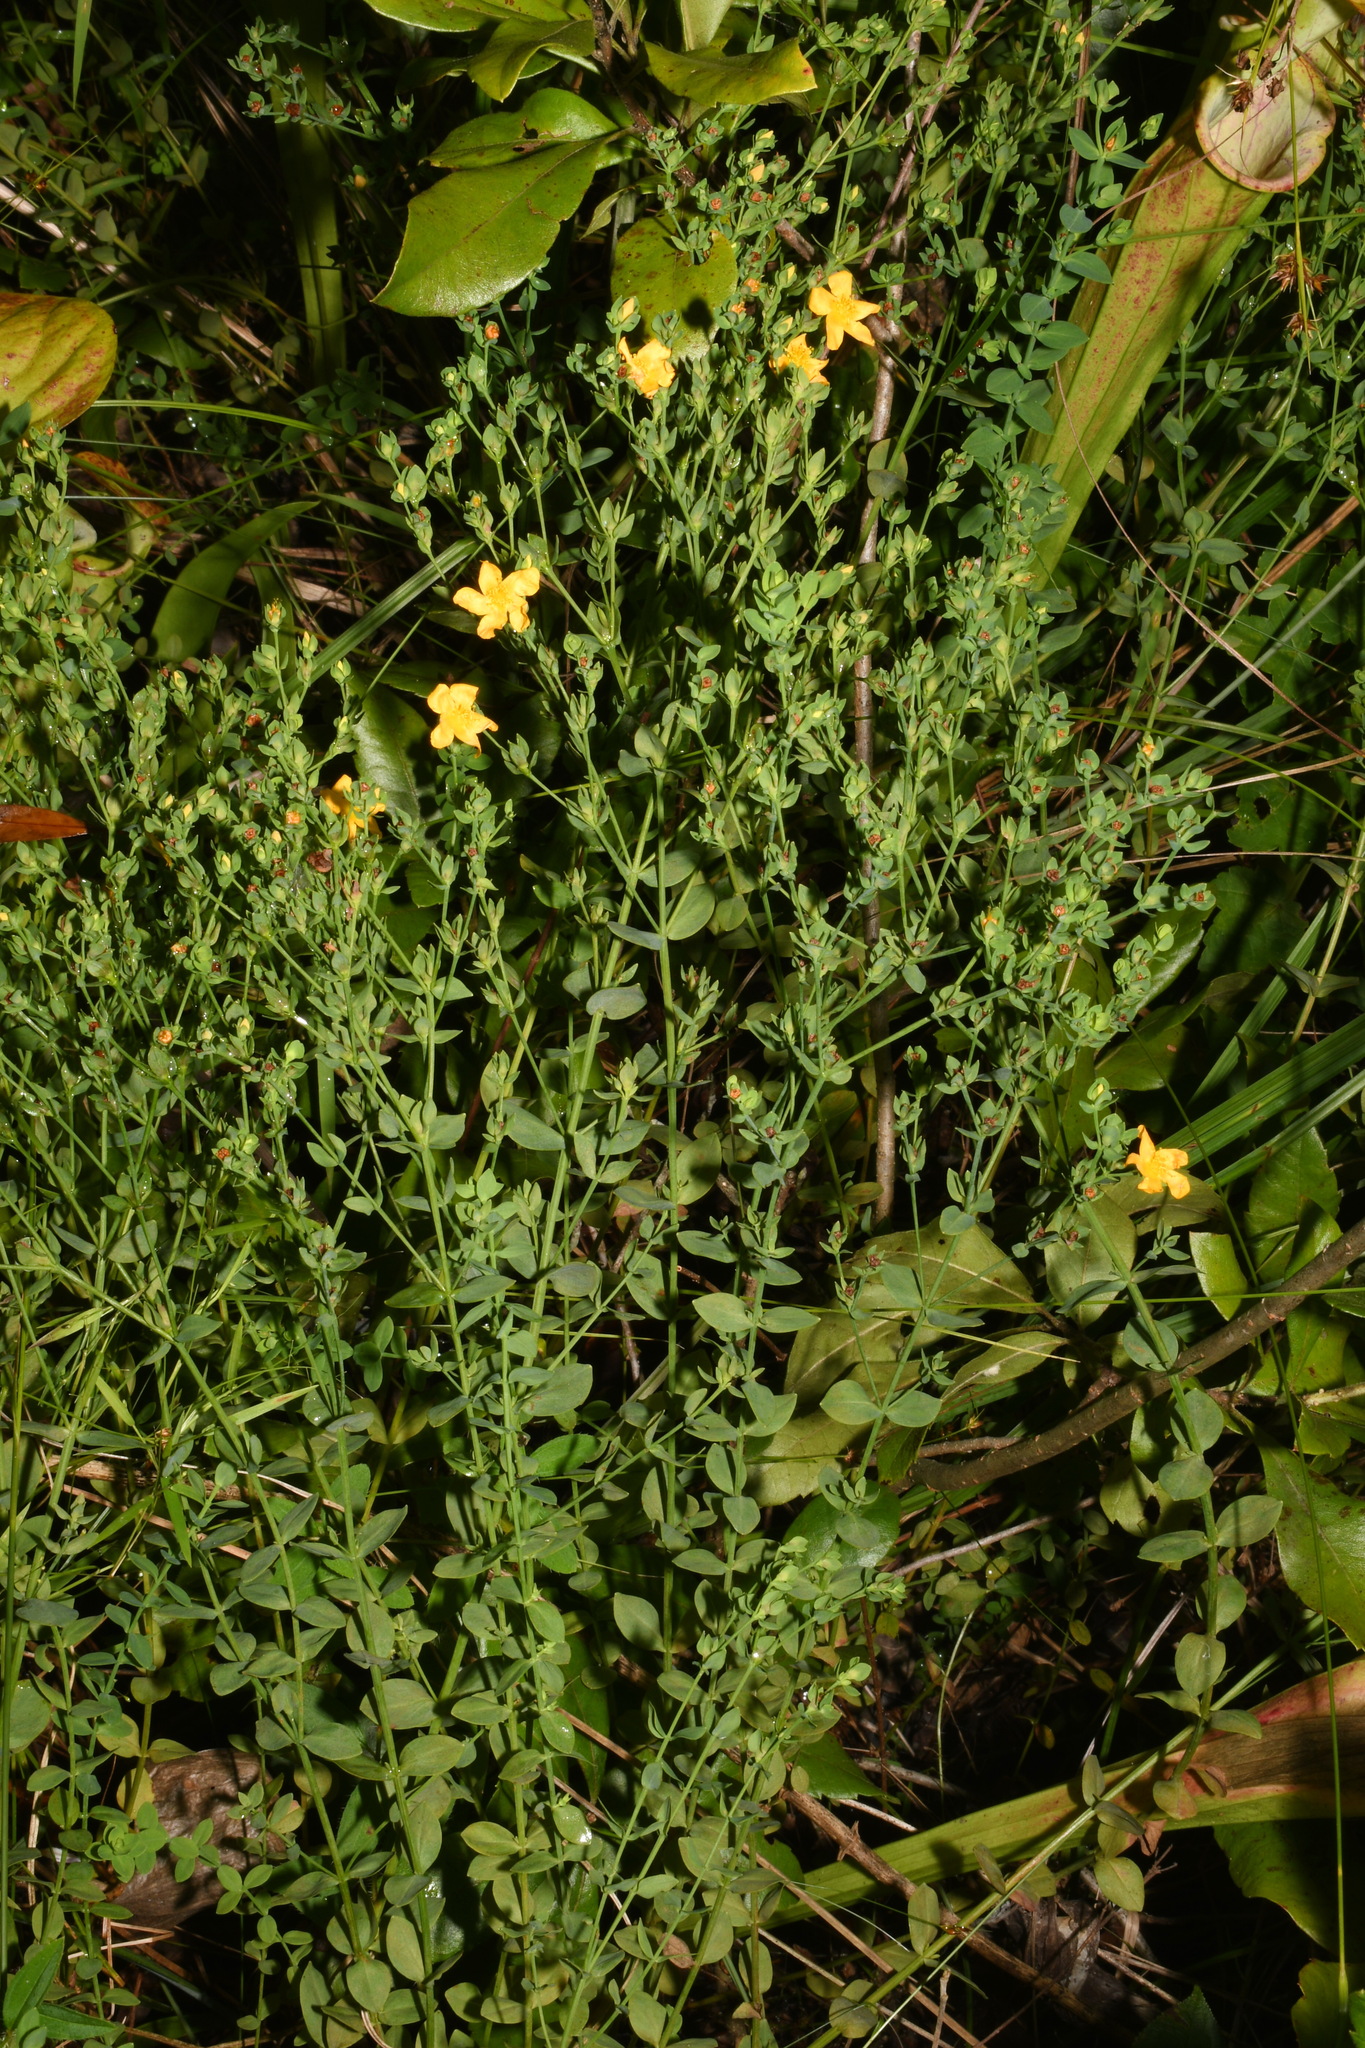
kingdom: Plantae
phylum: Tracheophyta
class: Magnoliopsida
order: Malpighiales
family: Hypericaceae
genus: Hypericum
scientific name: Hypericum denticulatum
